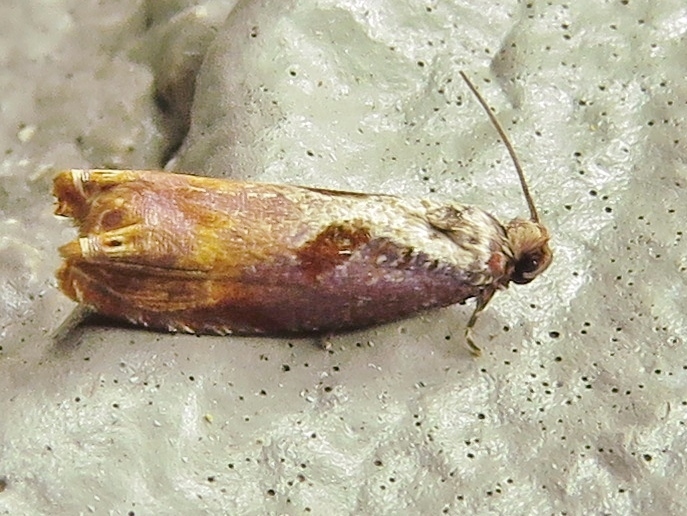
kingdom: Animalia
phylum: Arthropoda
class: Insecta
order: Lepidoptera
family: Tortricidae
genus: Episimus
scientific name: Episimus tyrius
